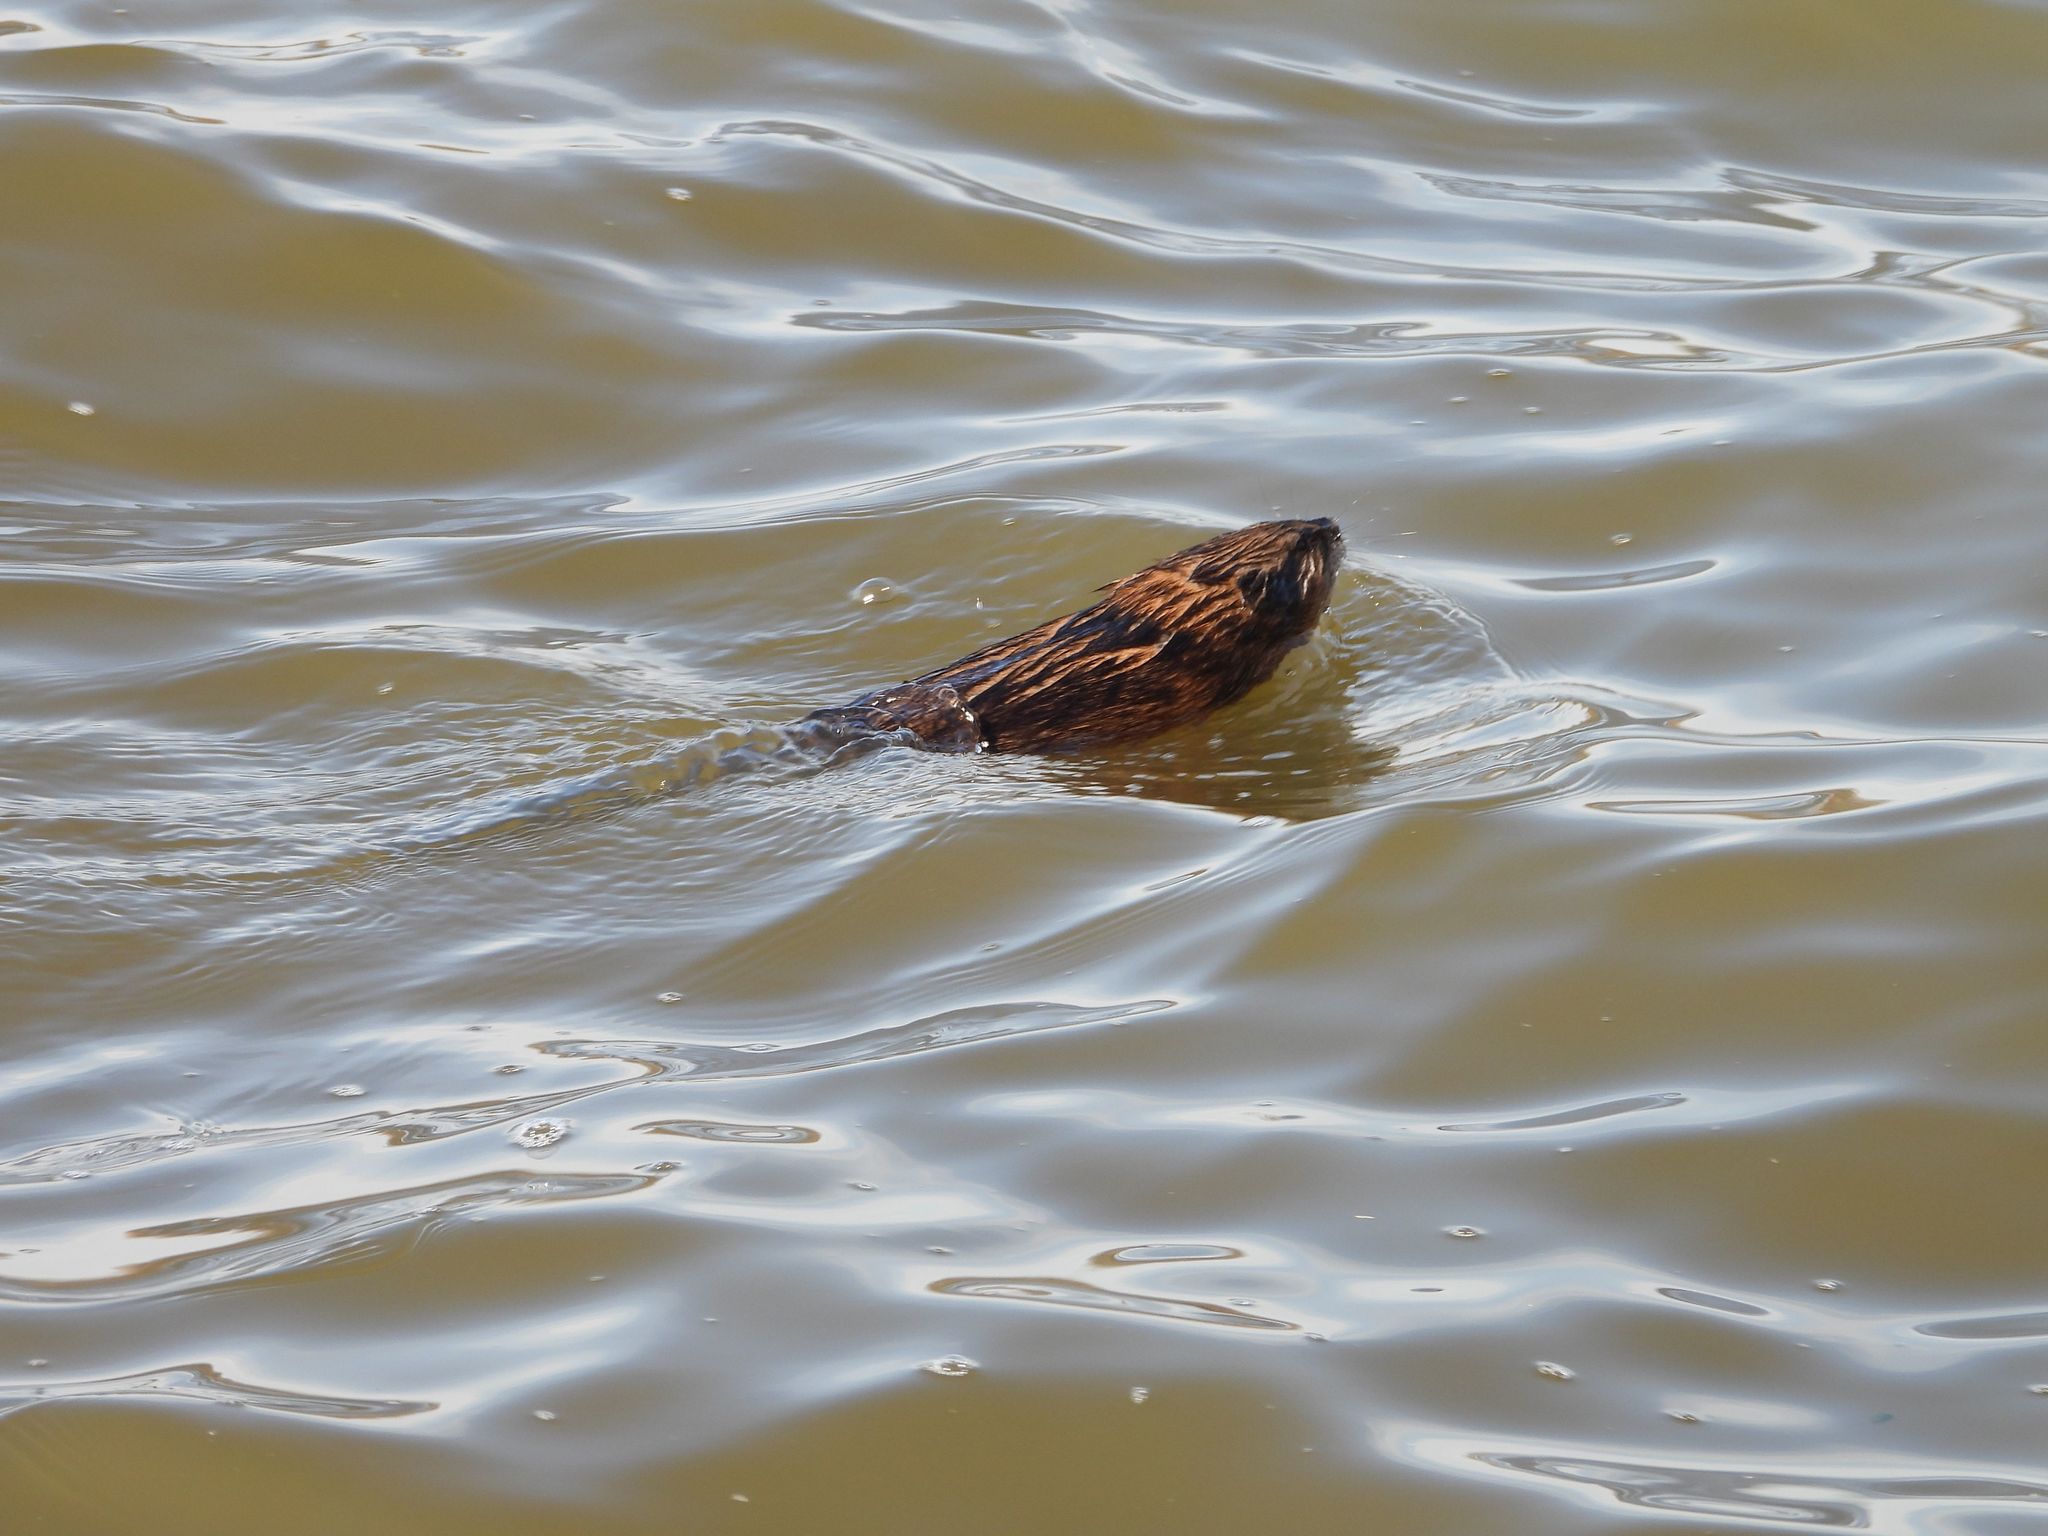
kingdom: Animalia
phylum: Chordata
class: Mammalia
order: Rodentia
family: Cricetidae
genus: Ondatra
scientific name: Ondatra zibethicus
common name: Muskrat
